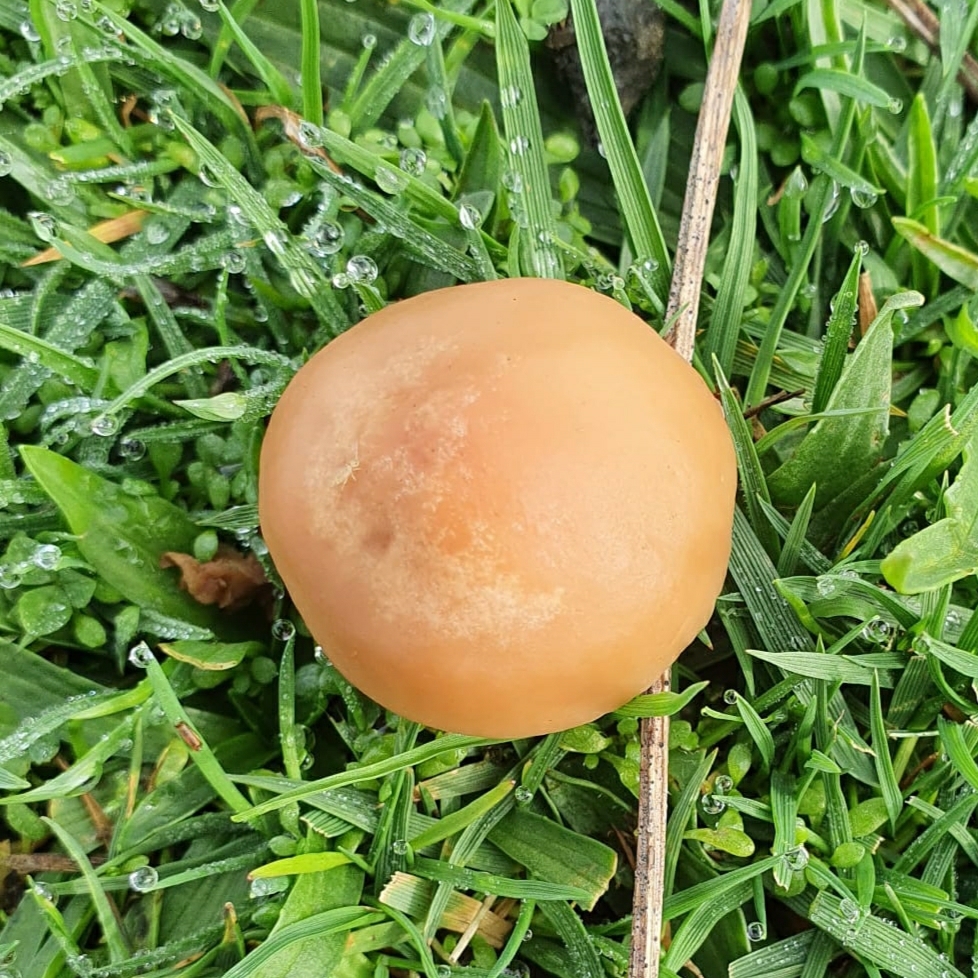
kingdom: Fungi
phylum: Basidiomycota
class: Agaricomycetes
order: Agaricales
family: Marasmiaceae
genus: Marasmius
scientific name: Marasmius oreades
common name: Fairy ring champignon
